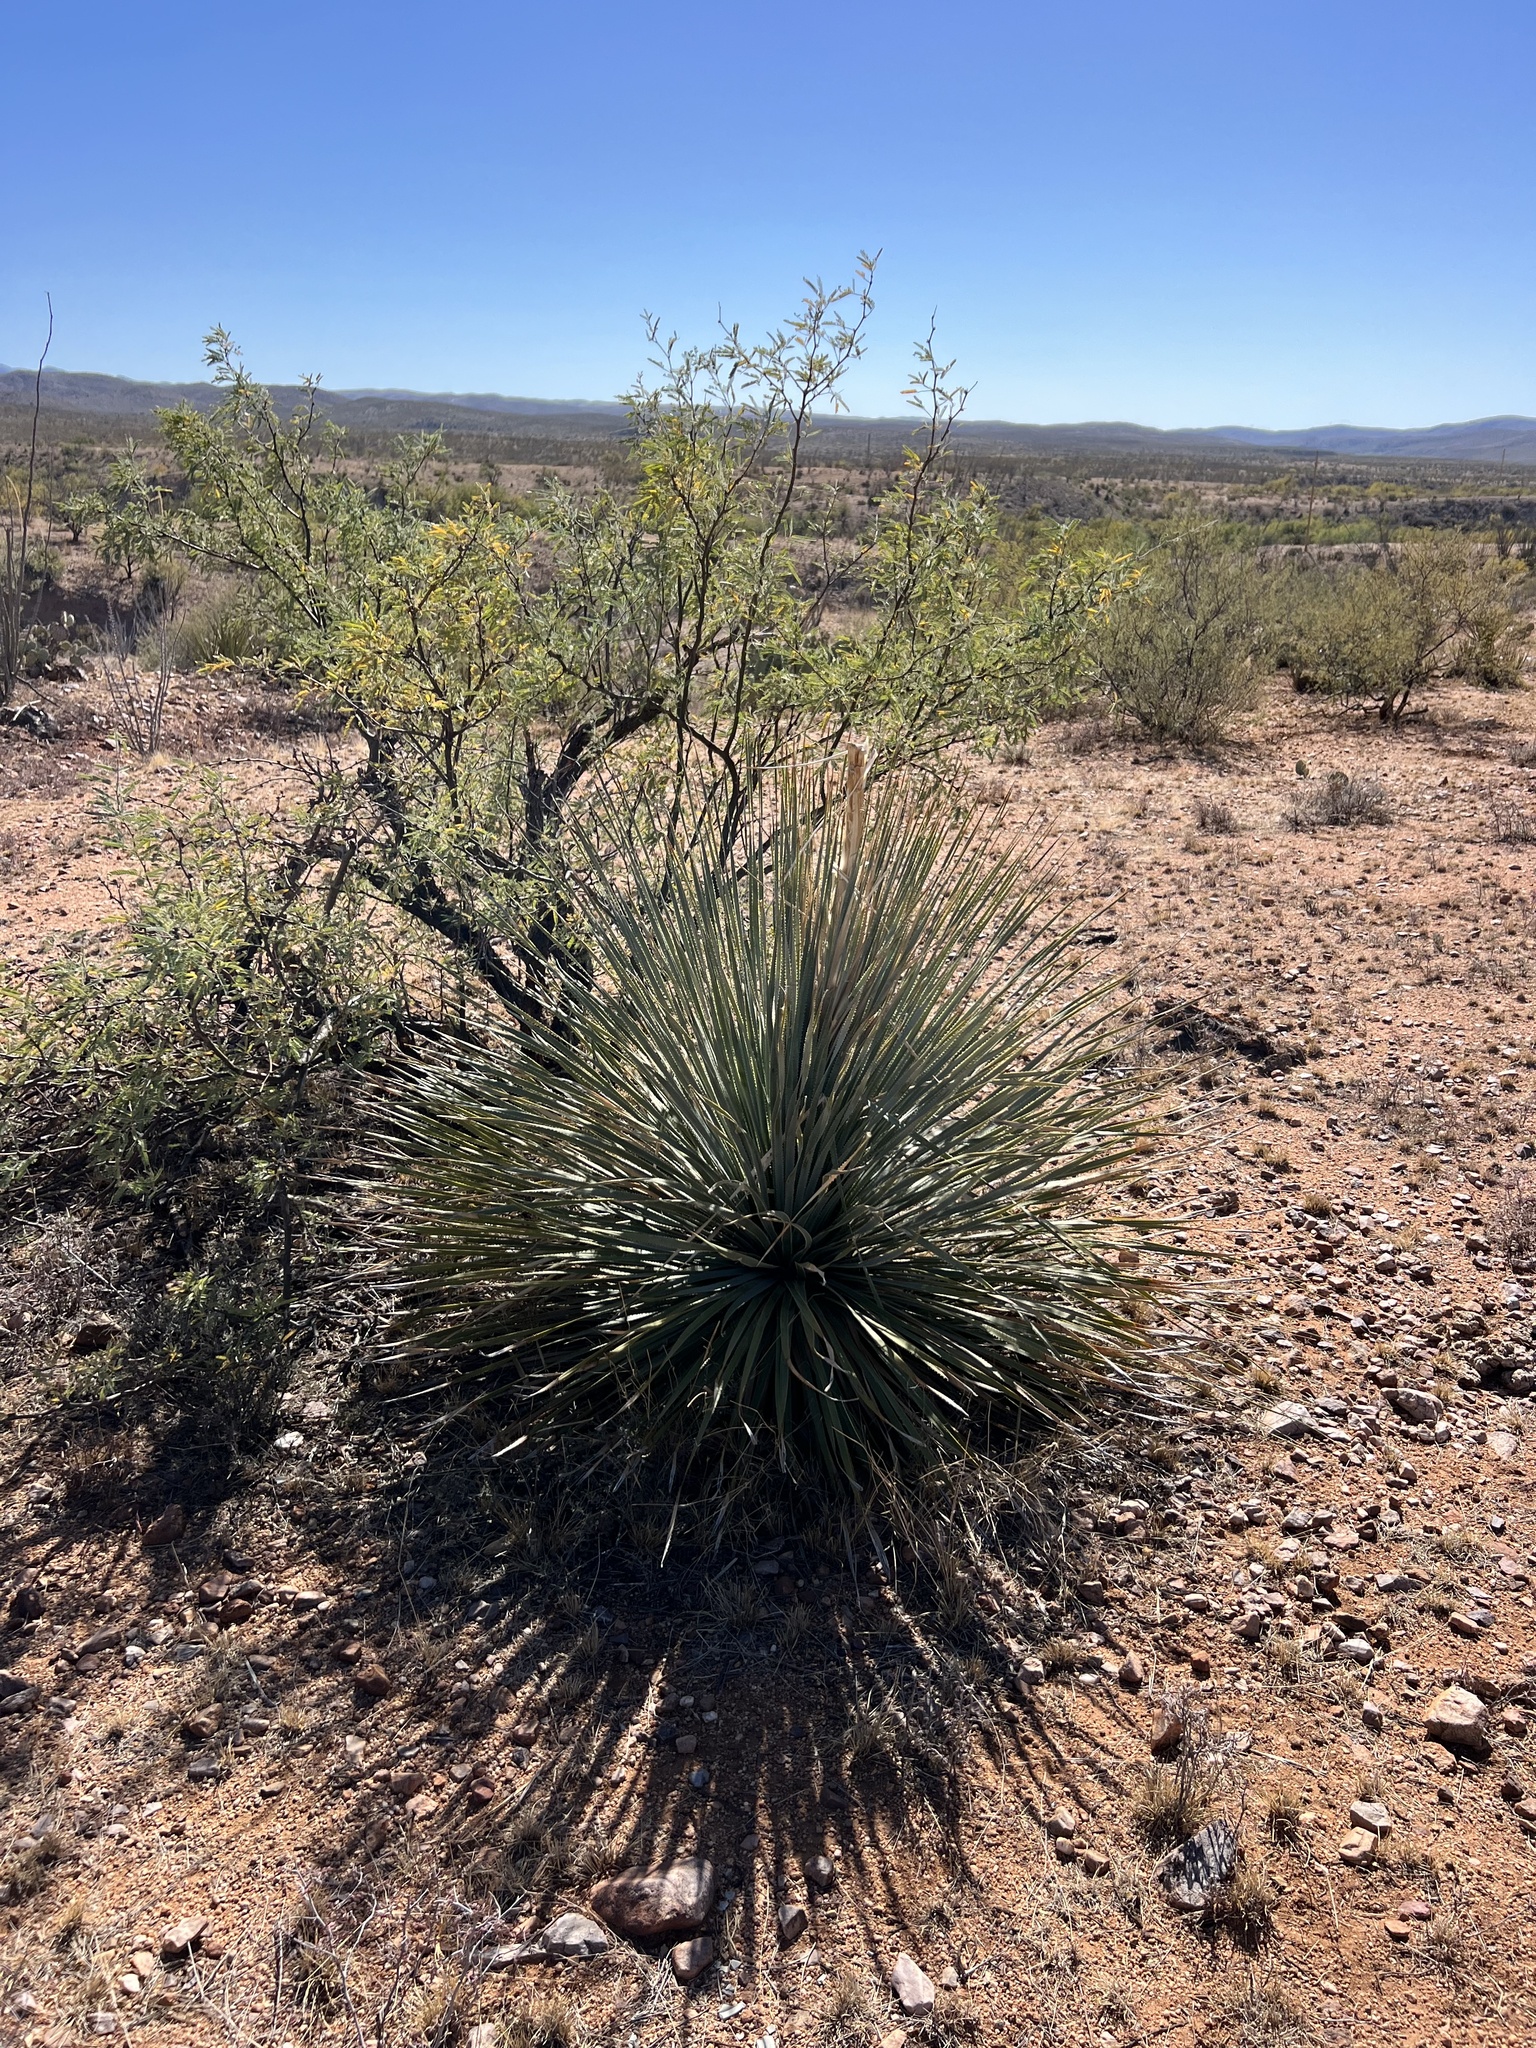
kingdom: Plantae
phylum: Tracheophyta
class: Liliopsida
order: Asparagales
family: Asparagaceae
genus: Dasylirion
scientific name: Dasylirion wheeleri
